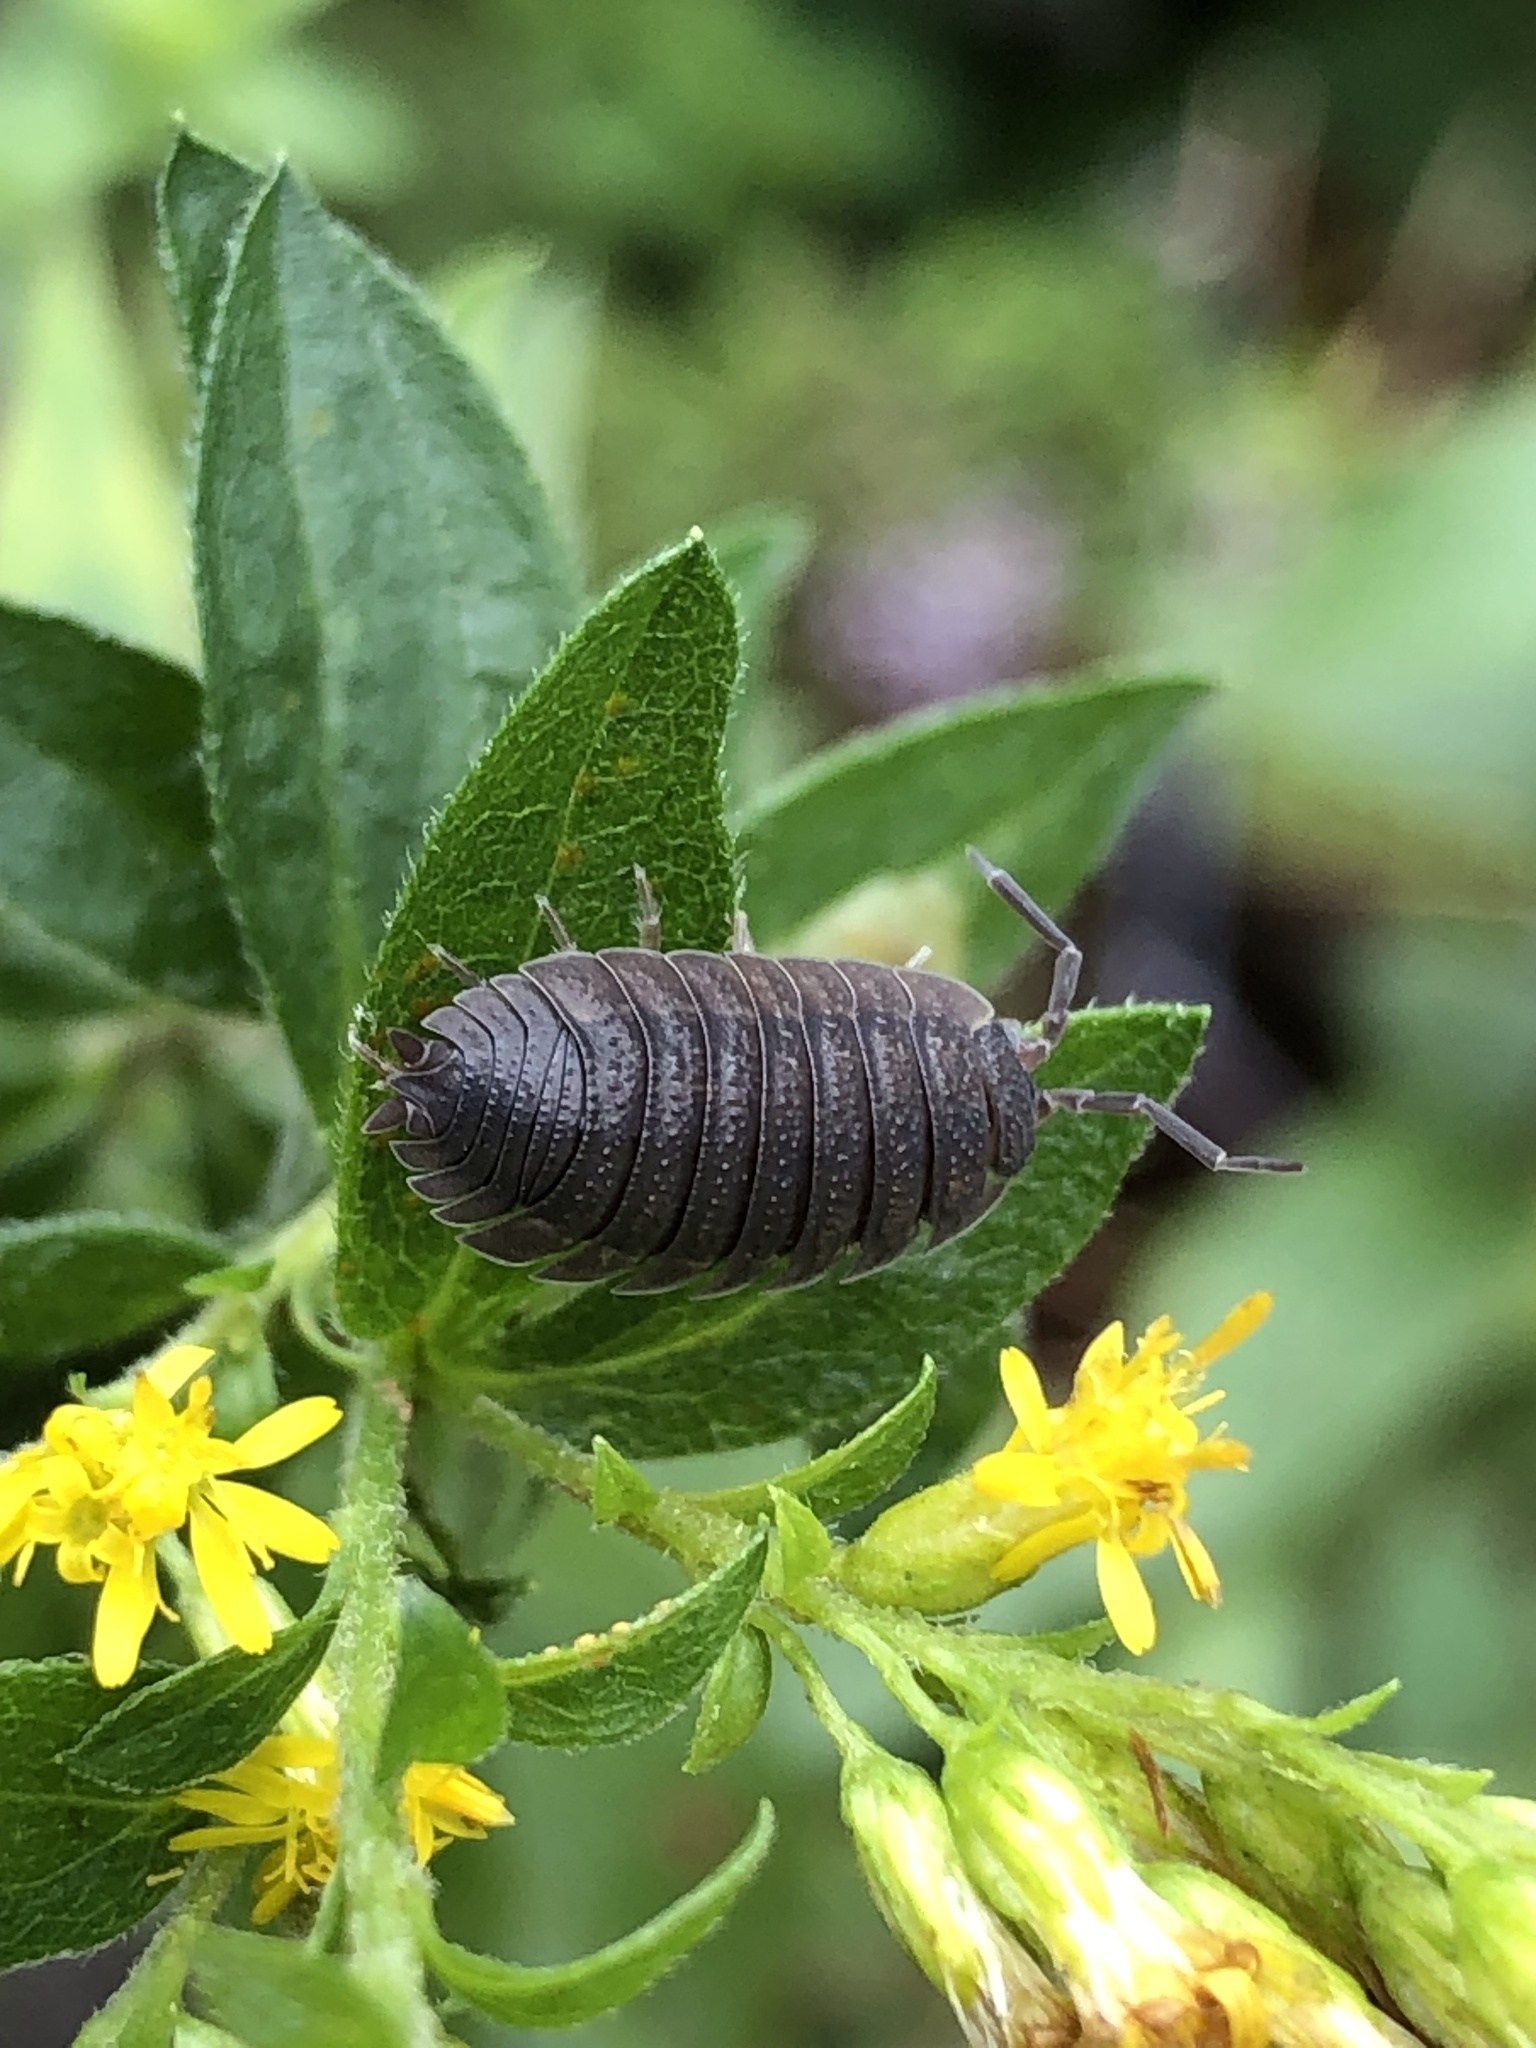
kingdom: Animalia
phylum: Arthropoda
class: Malacostraca
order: Isopoda
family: Porcellionidae
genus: Porcellio
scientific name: Porcellio scaber
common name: Common rough woodlouse
